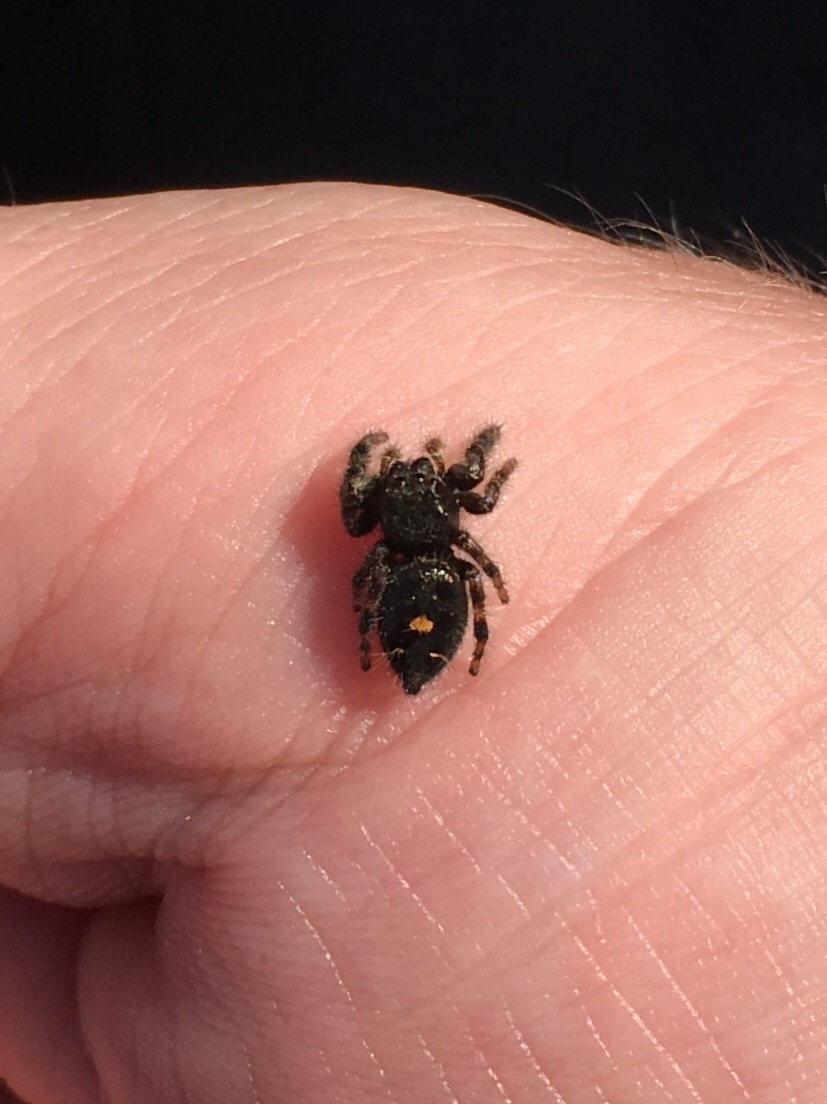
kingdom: Animalia
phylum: Arthropoda
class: Arachnida
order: Araneae
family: Salticidae
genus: Phidippus
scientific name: Phidippus audax
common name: Bold jumper
